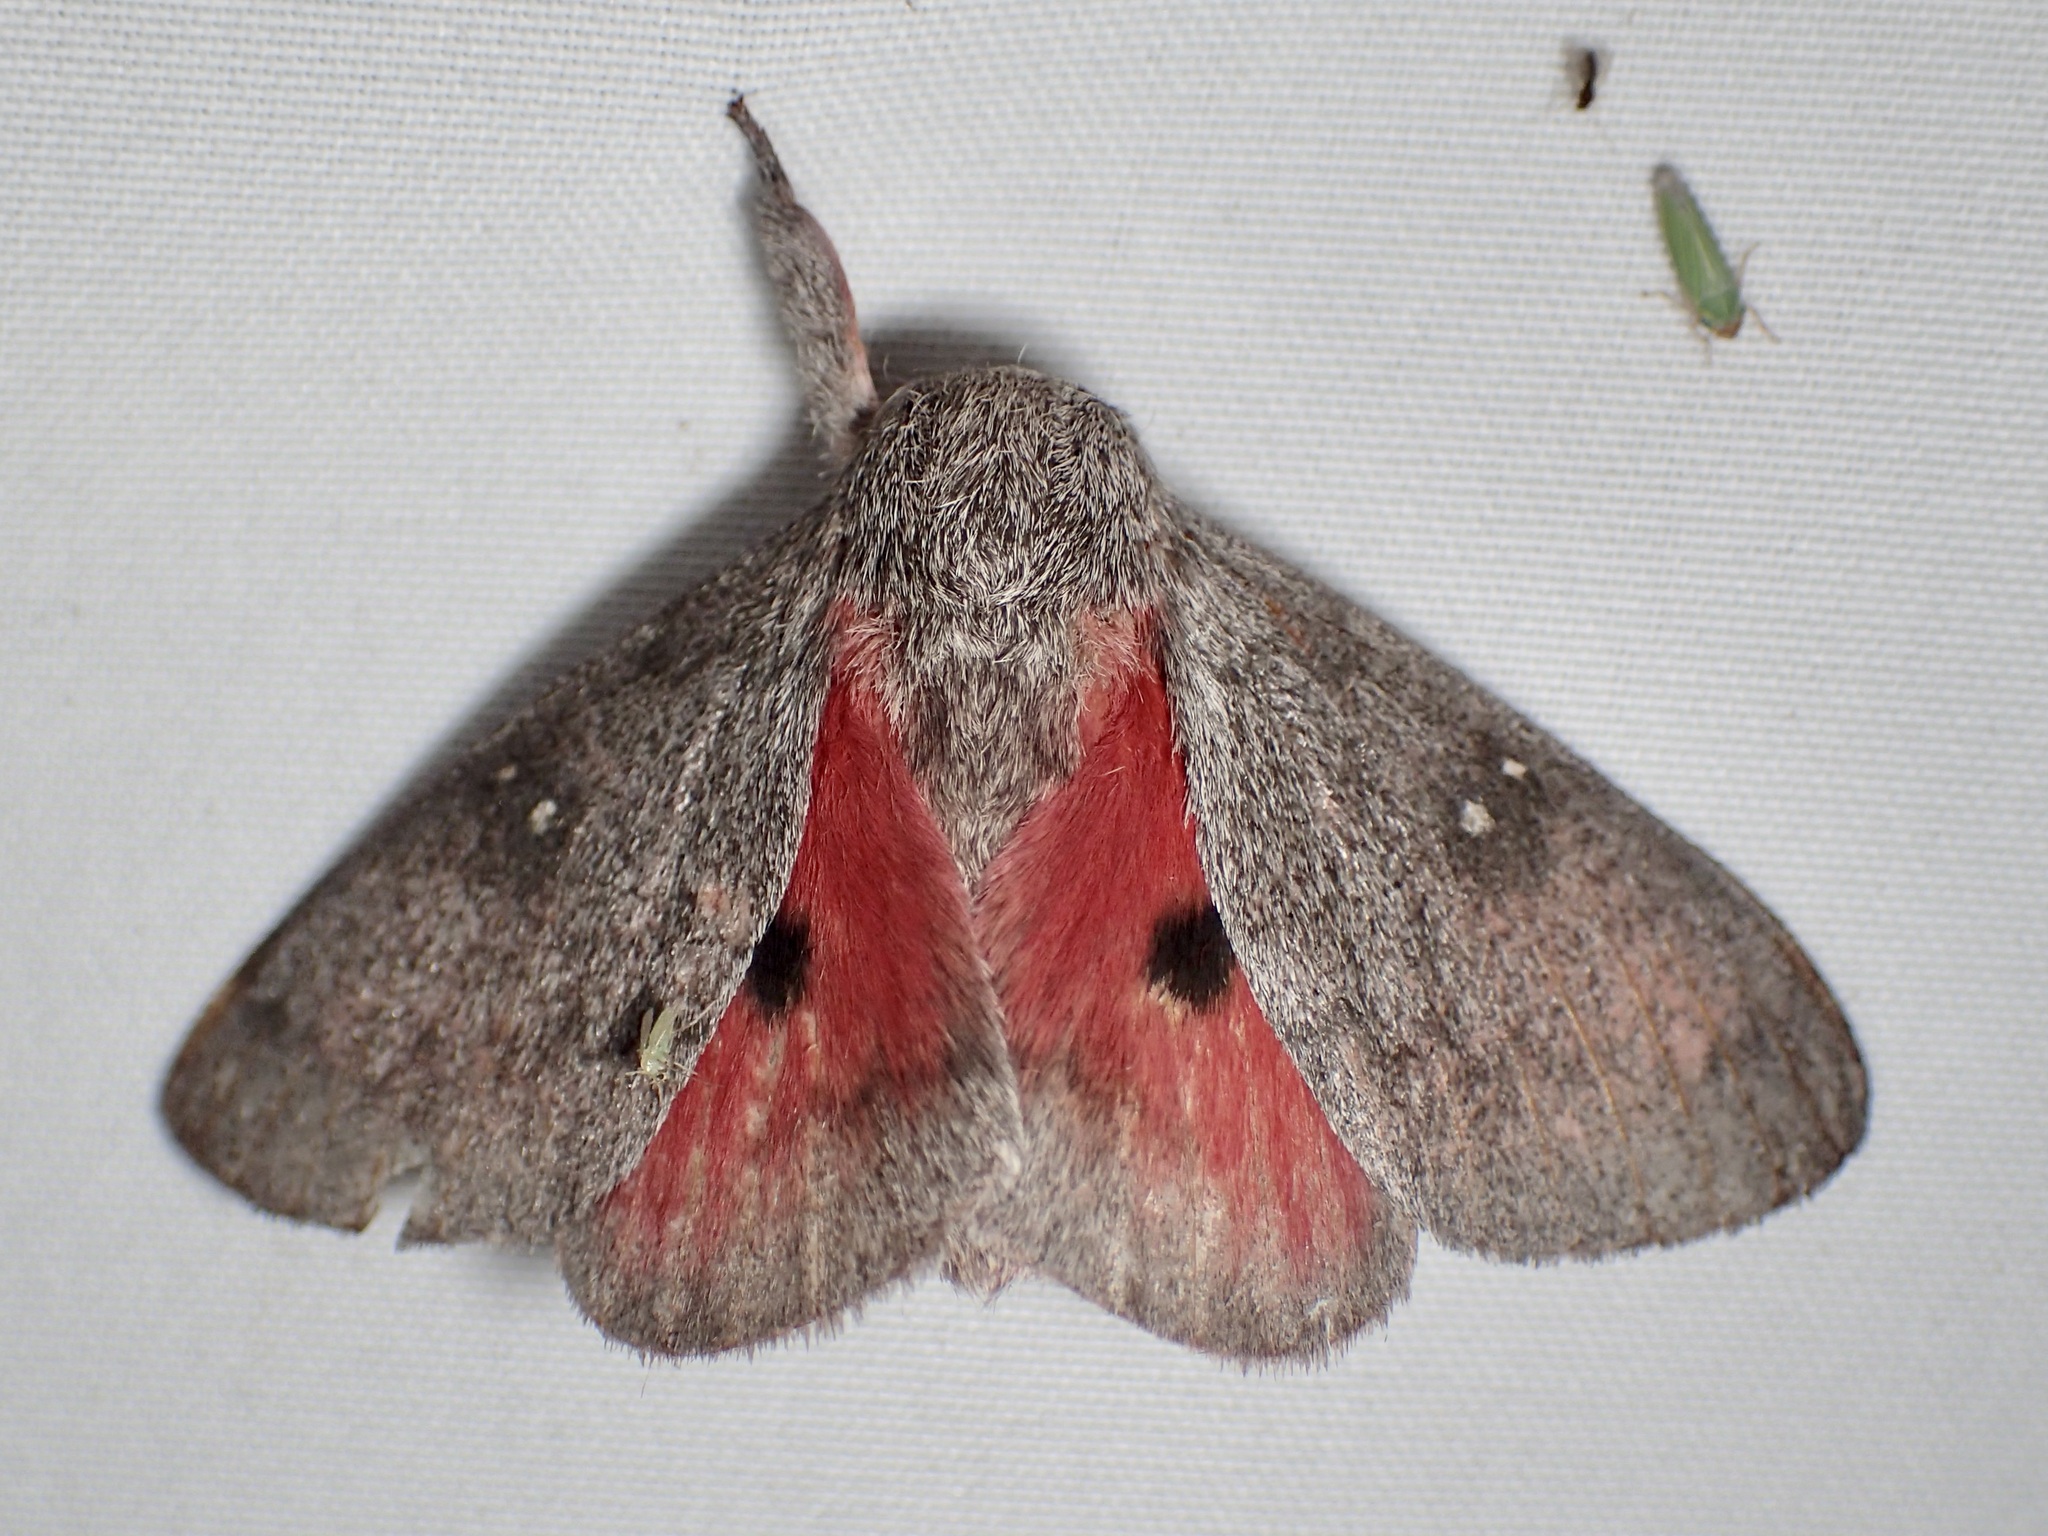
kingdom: Animalia
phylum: Arthropoda
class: Insecta
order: Lepidoptera
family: Saturniidae
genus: Syssphinx
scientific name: Syssphinx hubbardi
